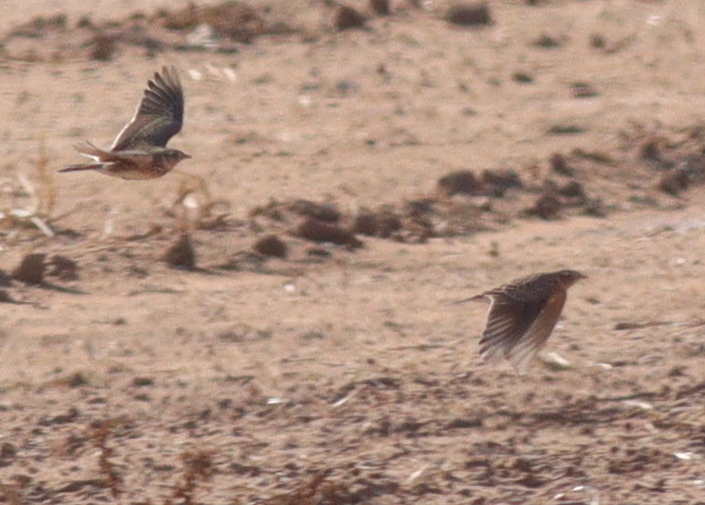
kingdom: Animalia
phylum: Chordata
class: Aves
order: Passeriformes
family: Alaudidae
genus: Alauda
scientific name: Alauda arvensis
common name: Eurasian skylark
